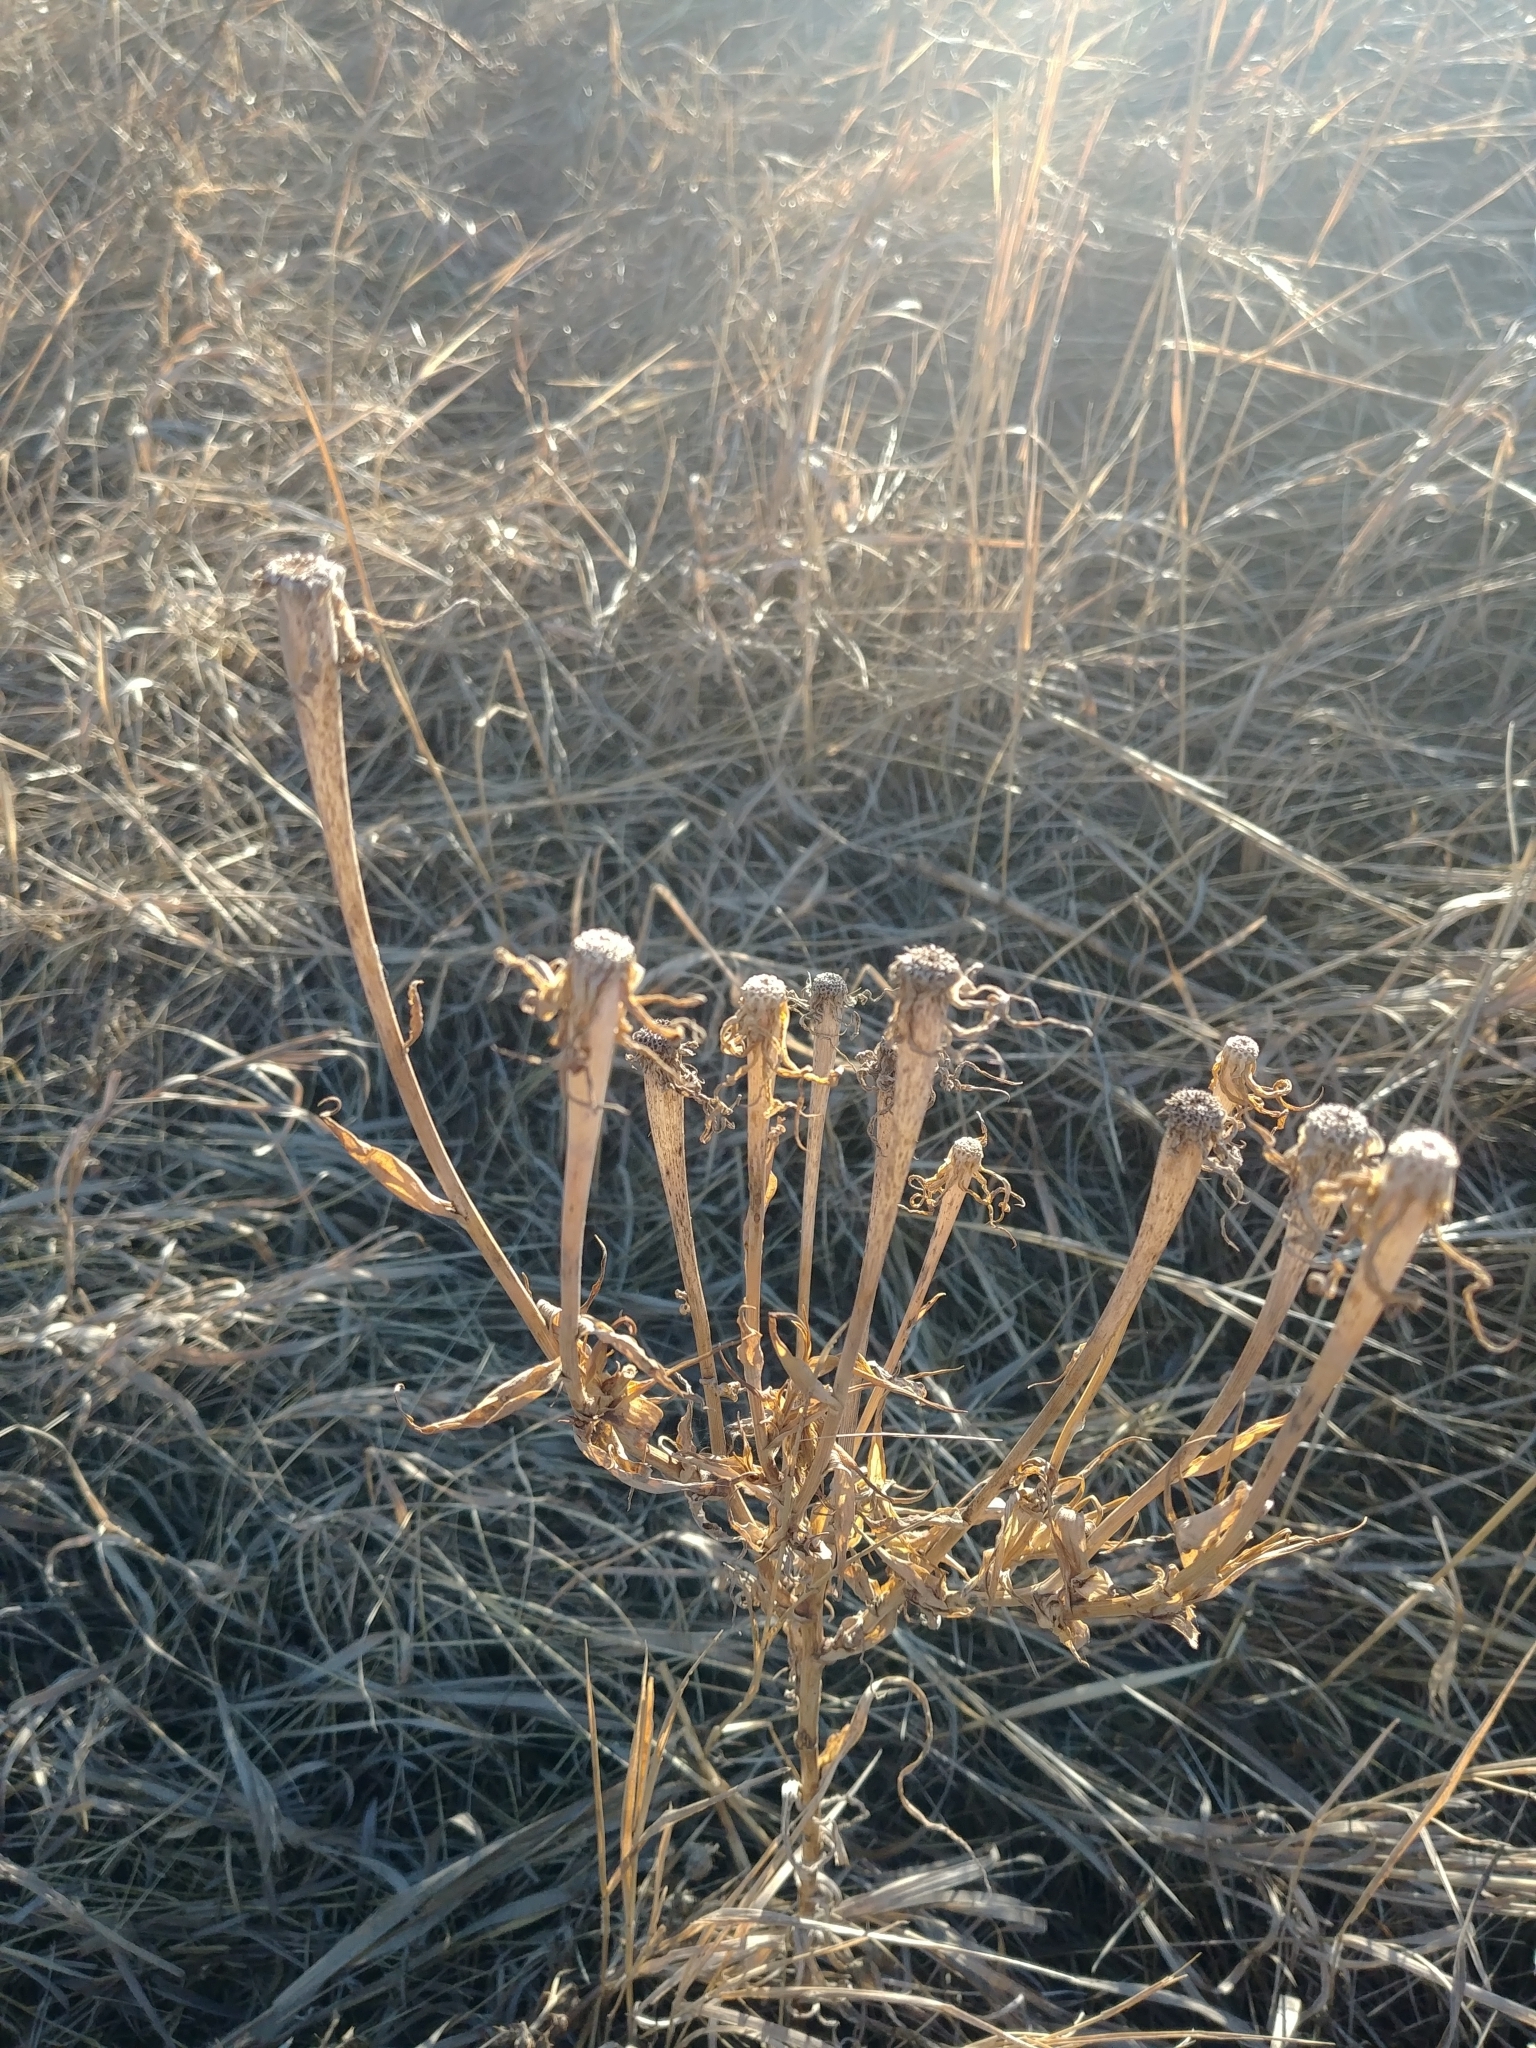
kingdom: Plantae
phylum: Tracheophyta
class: Magnoliopsida
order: Asterales
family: Asteraceae
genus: Tragopogon
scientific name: Tragopogon dubius
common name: Yellow salsify
